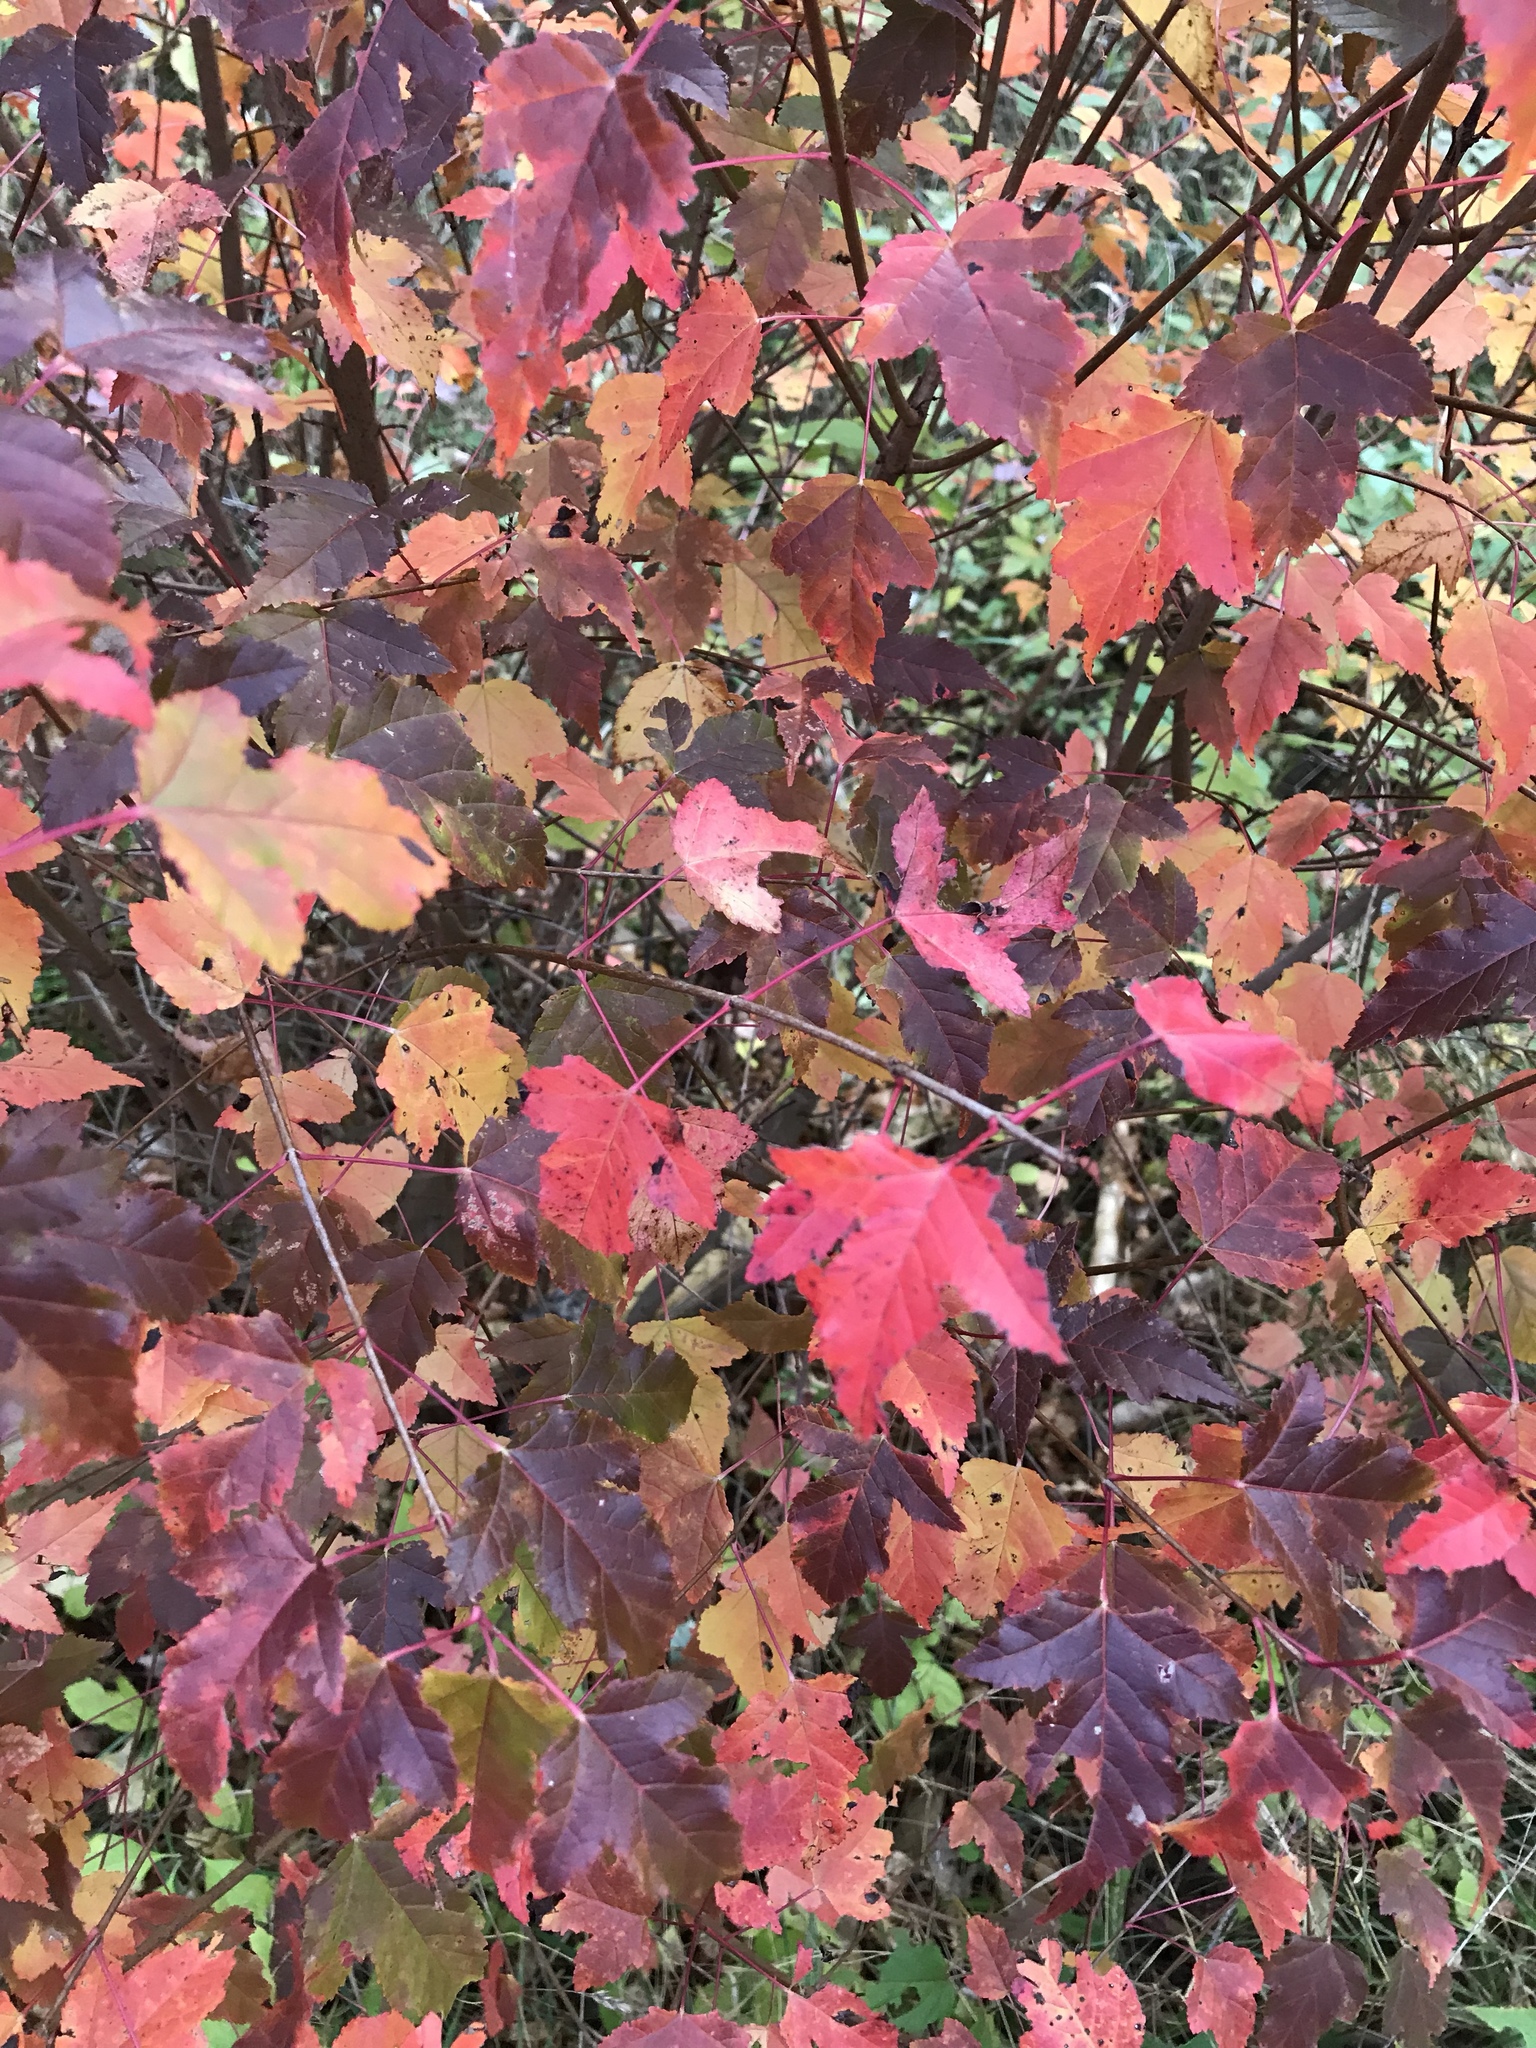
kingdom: Plantae
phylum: Tracheophyta
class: Magnoliopsida
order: Sapindales
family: Sapindaceae
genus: Acer
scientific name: Acer tataricum
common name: Tartar maple
